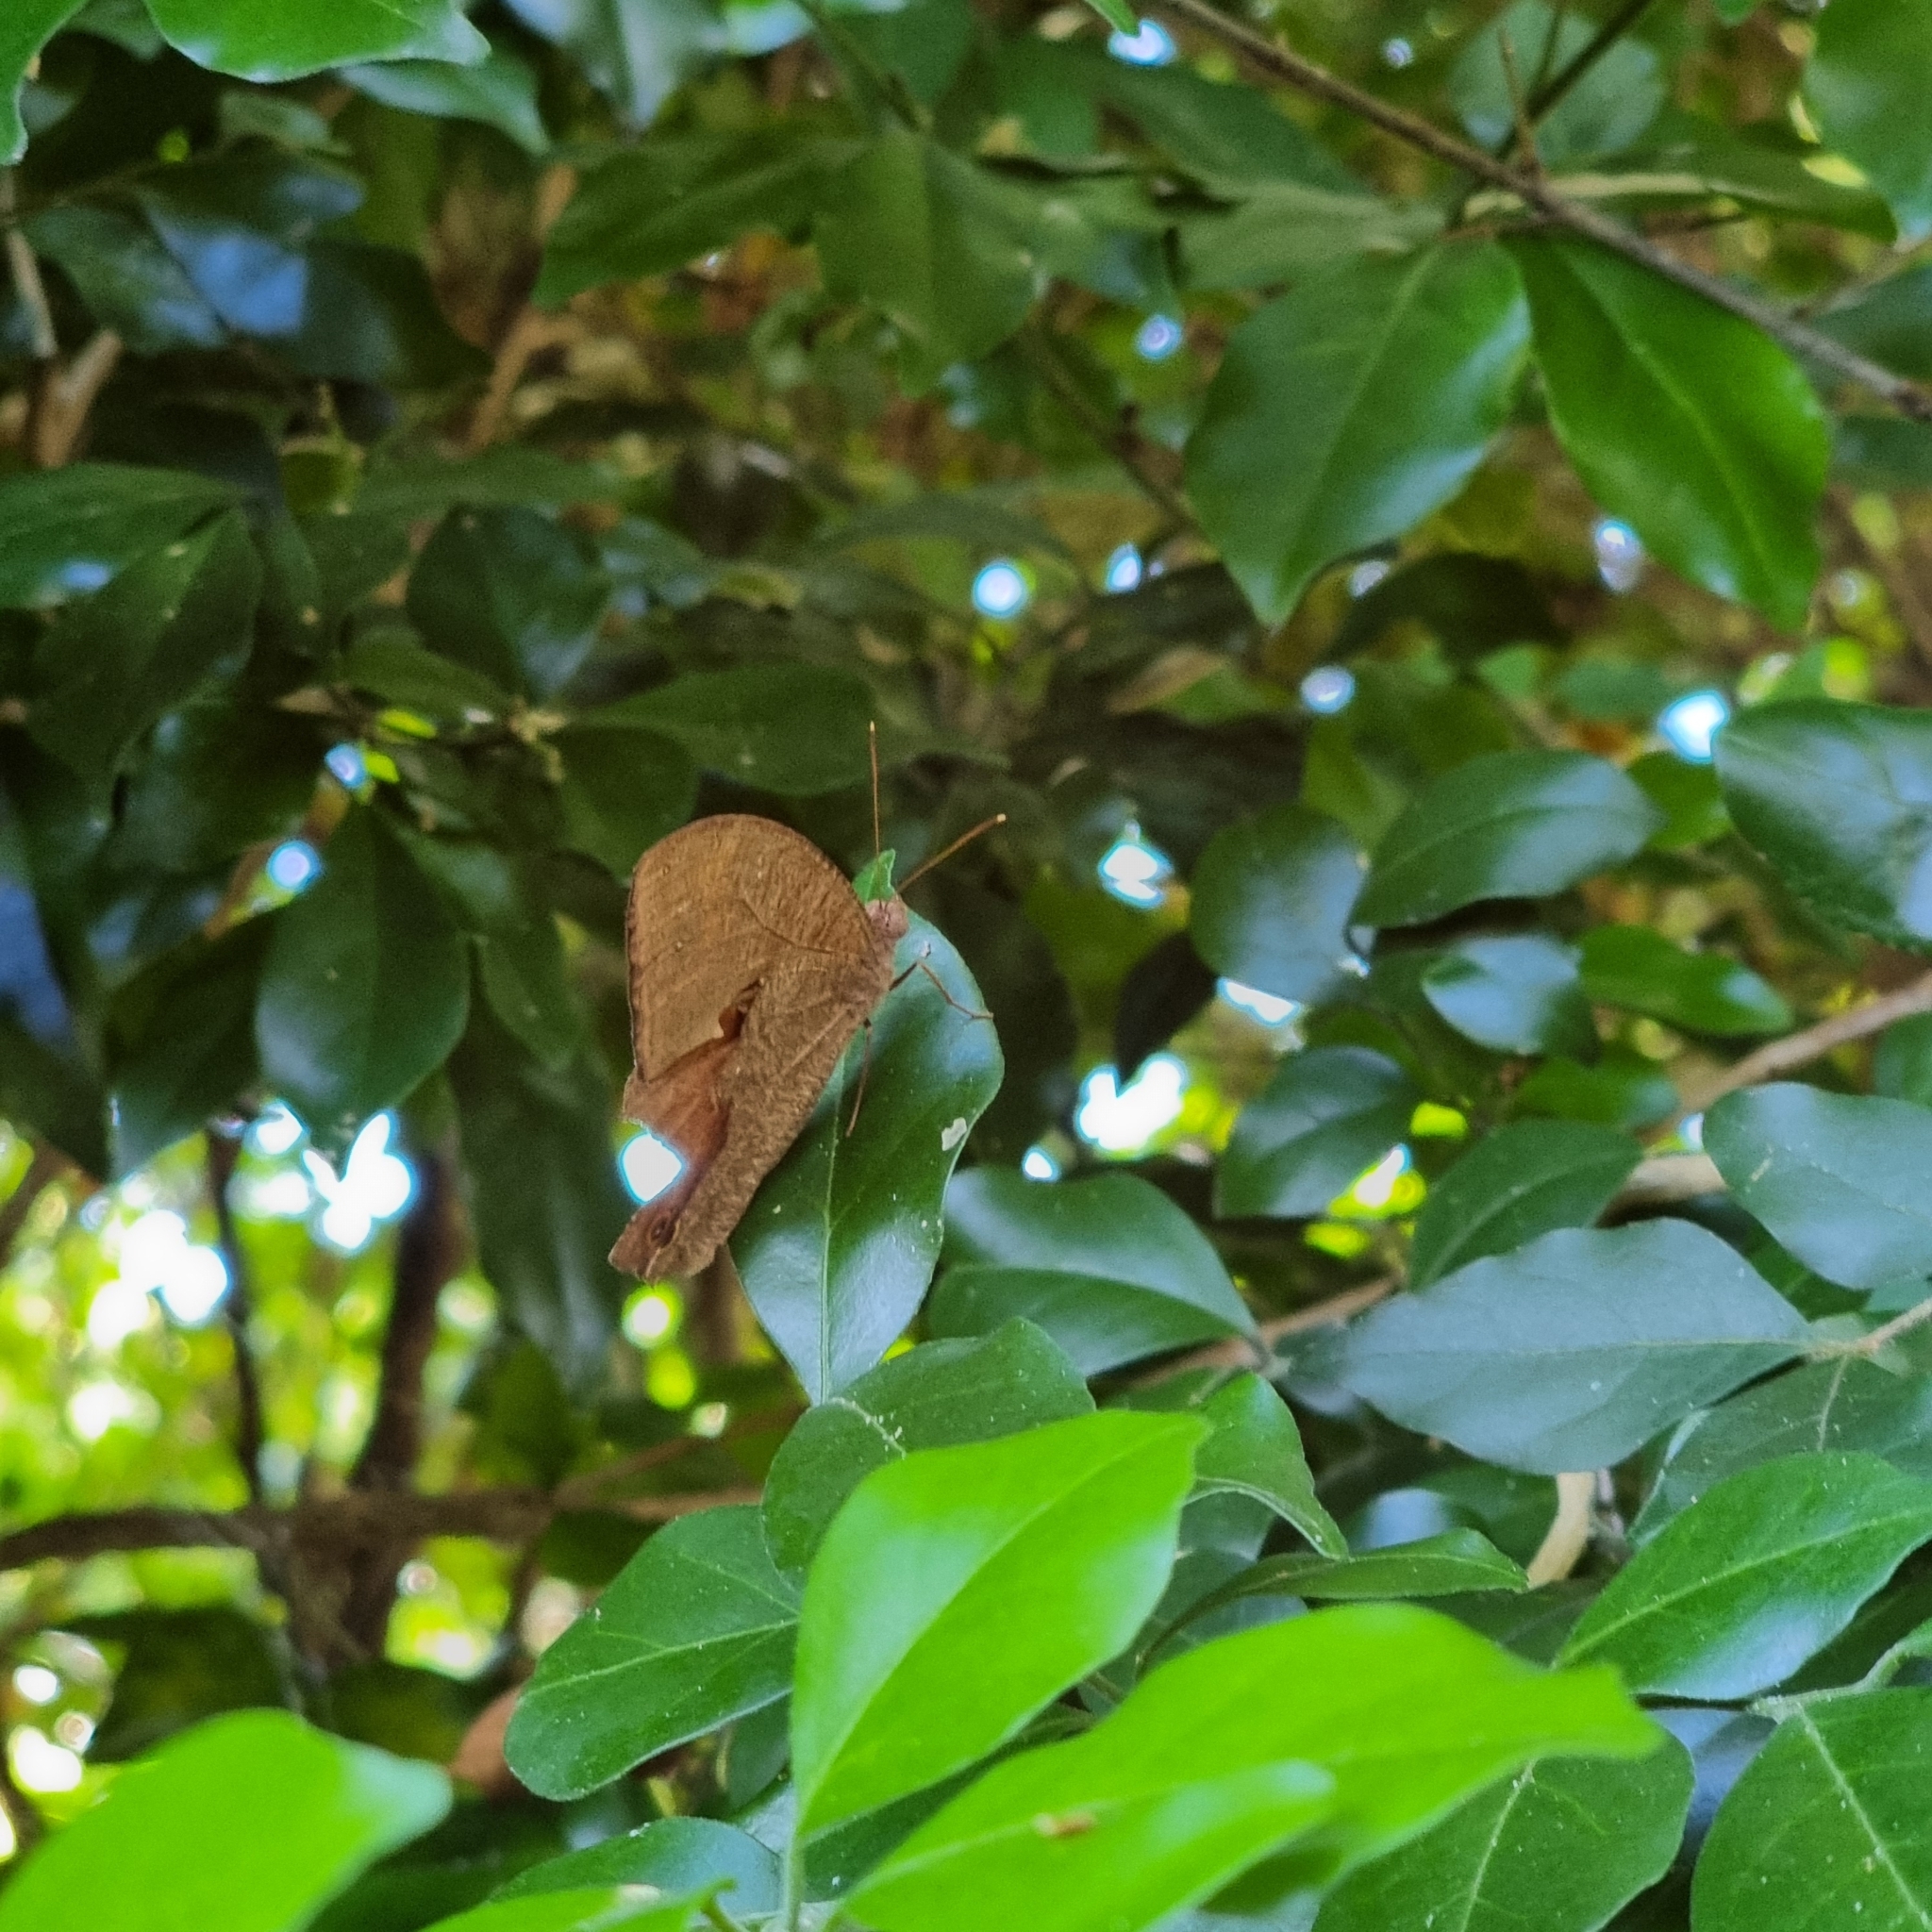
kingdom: Animalia
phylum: Arthropoda
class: Insecta
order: Lepidoptera
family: Nymphalidae
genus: Melanitis
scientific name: Melanitis leda
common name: Twilight brown
